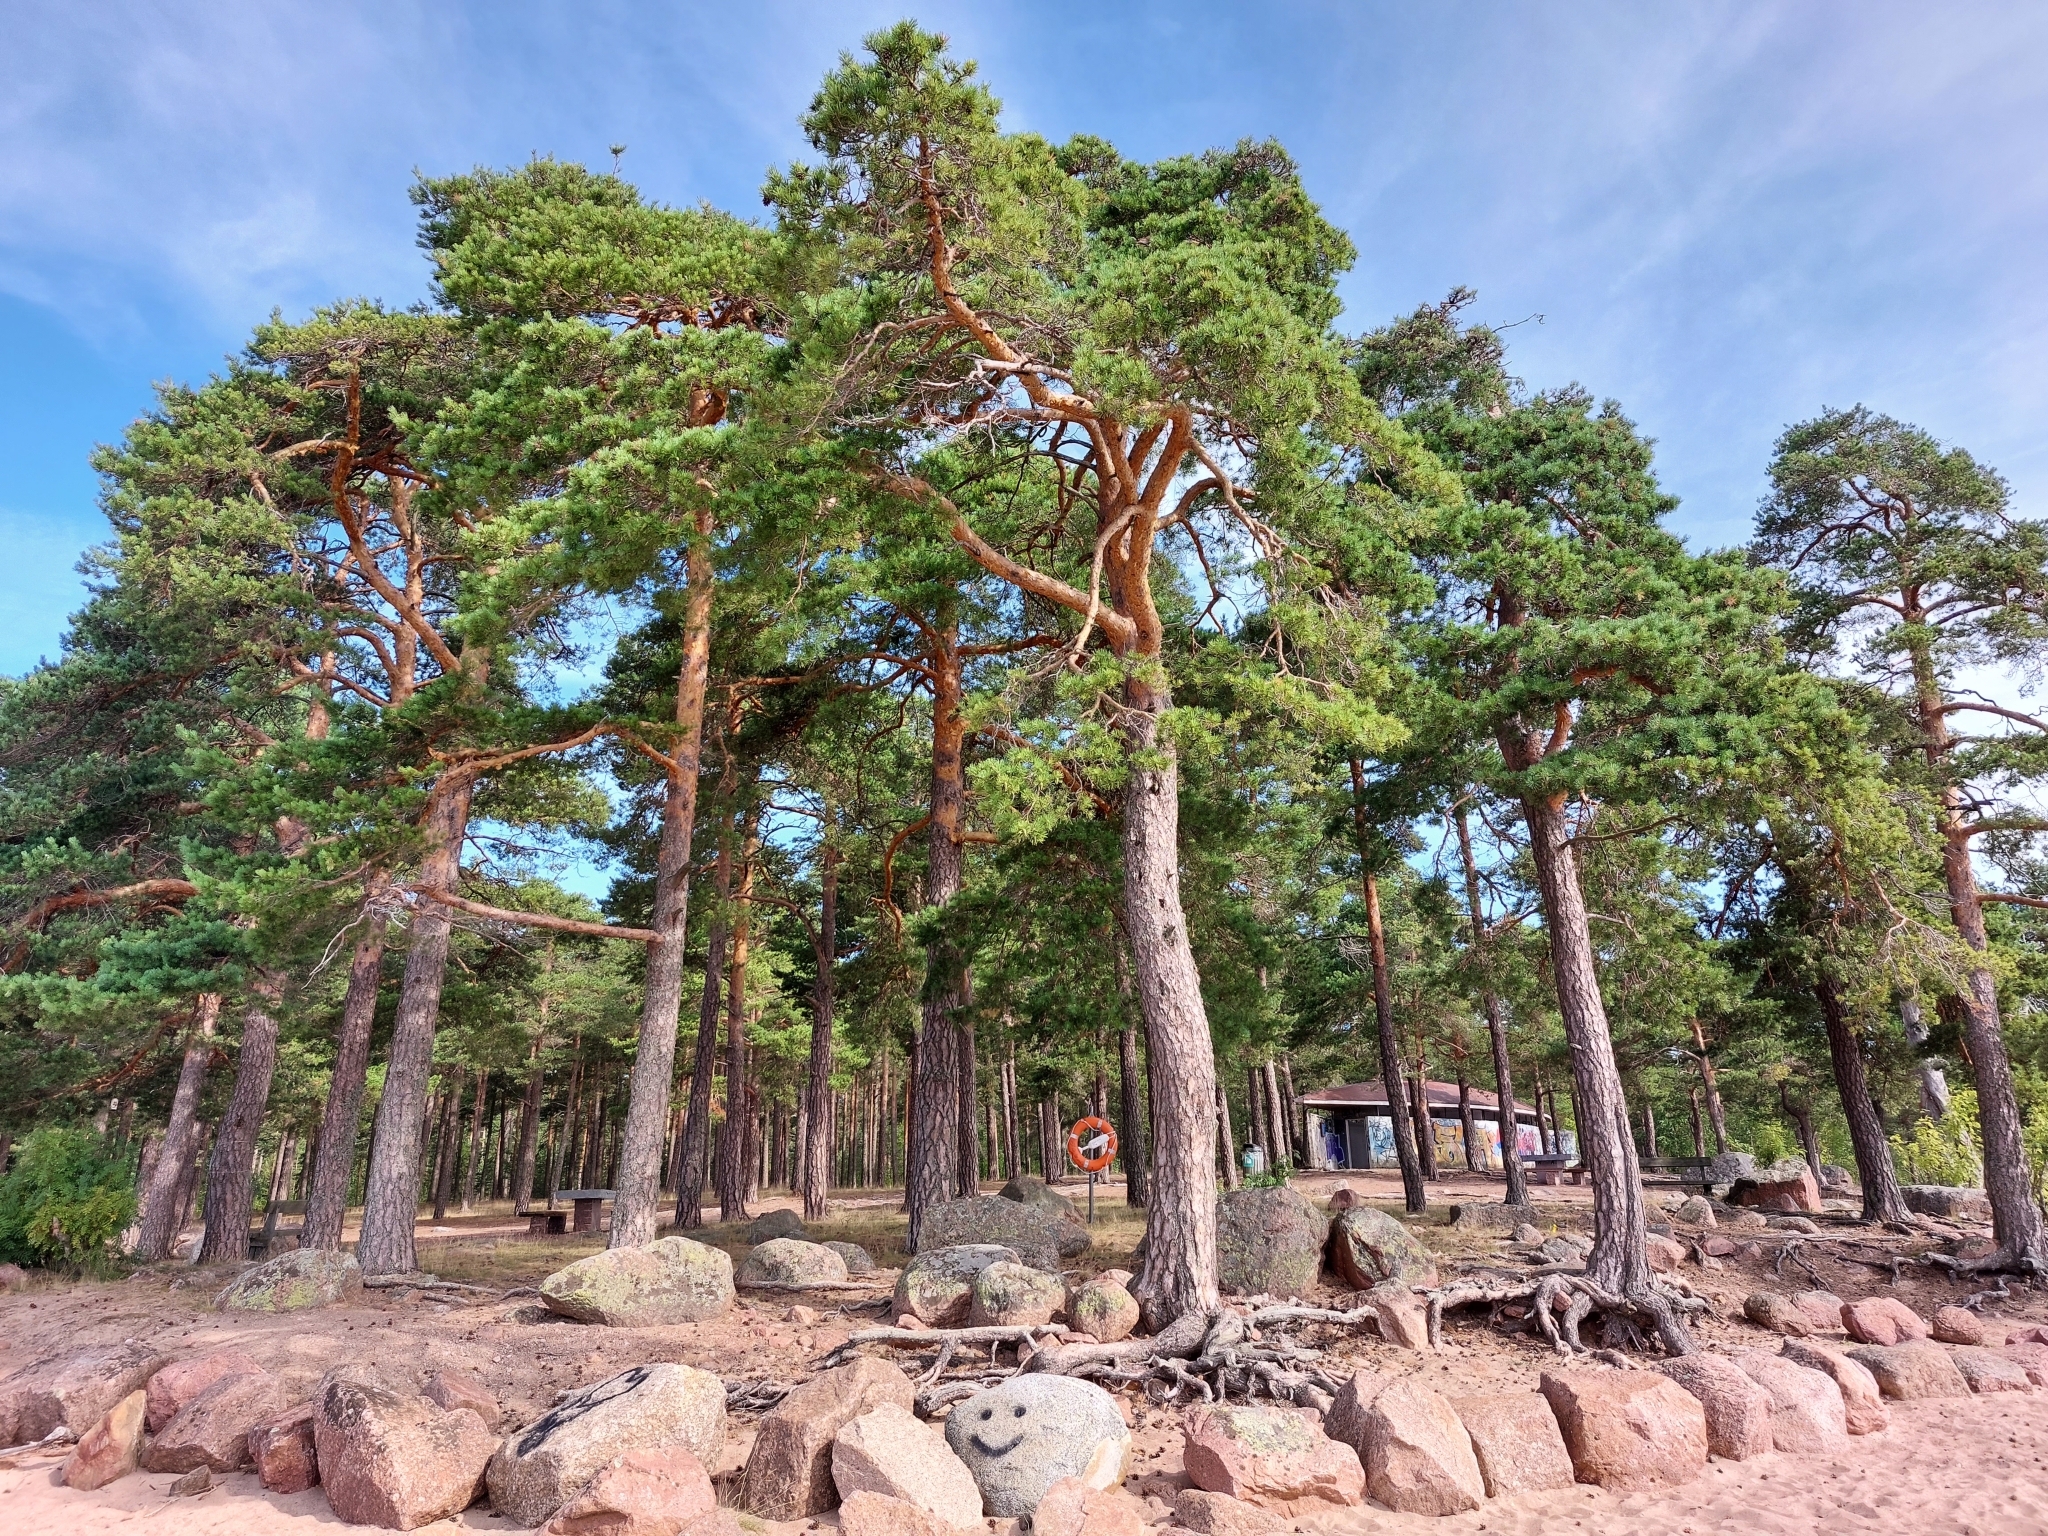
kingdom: Plantae
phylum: Tracheophyta
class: Pinopsida
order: Pinales
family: Pinaceae
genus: Pinus
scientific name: Pinus sylvestris
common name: Scots pine
